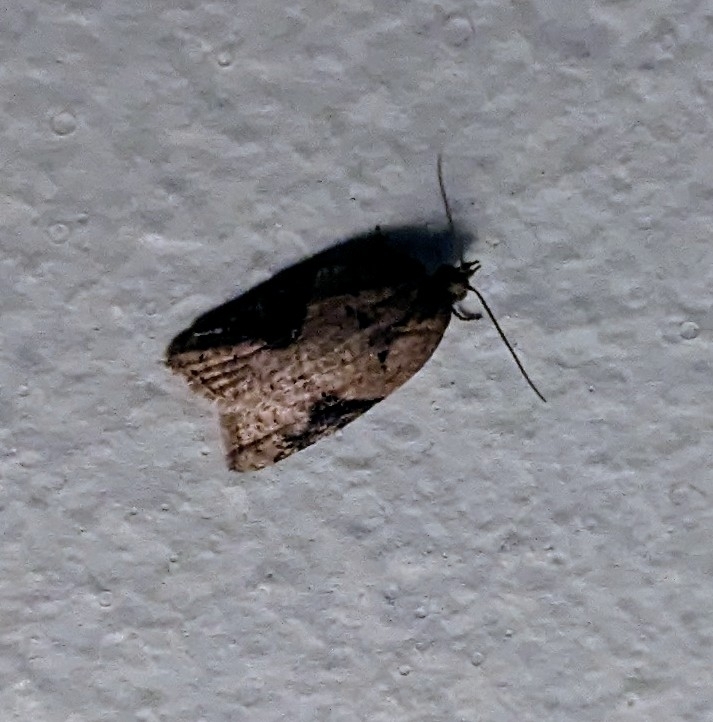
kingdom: Animalia
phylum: Arthropoda
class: Insecta
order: Lepidoptera
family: Tortricidae
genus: Acleris
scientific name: Acleris
